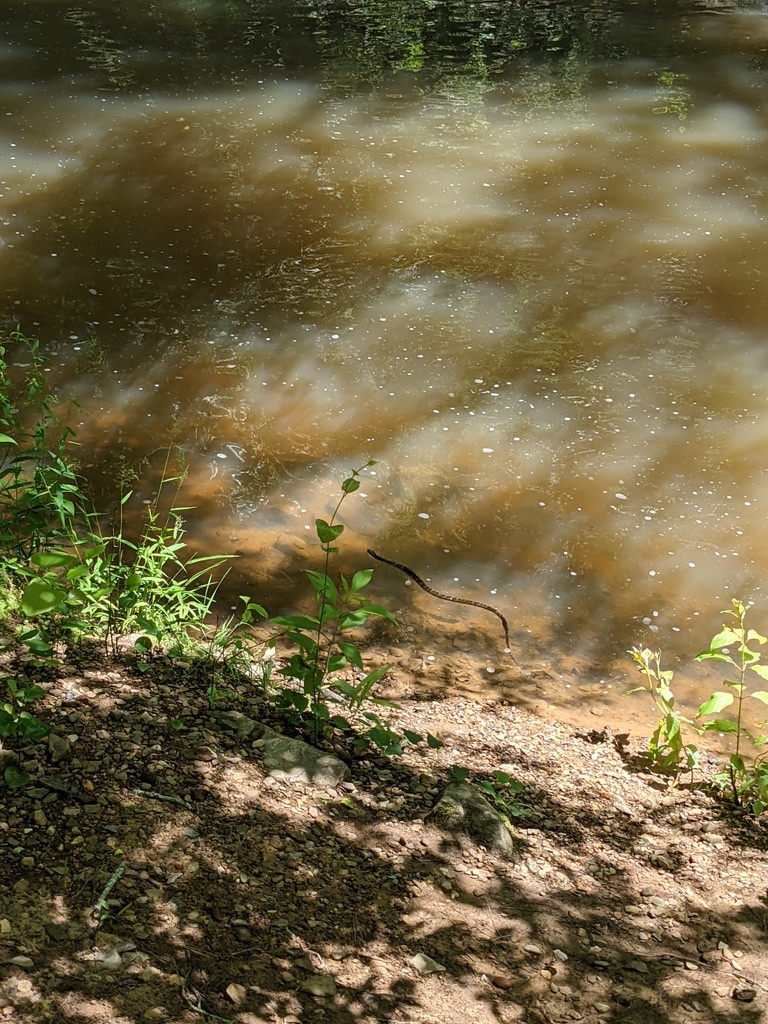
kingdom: Animalia
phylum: Chordata
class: Squamata
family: Colubridae
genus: Nerodia
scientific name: Nerodia sipedon
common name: Northern water snake
